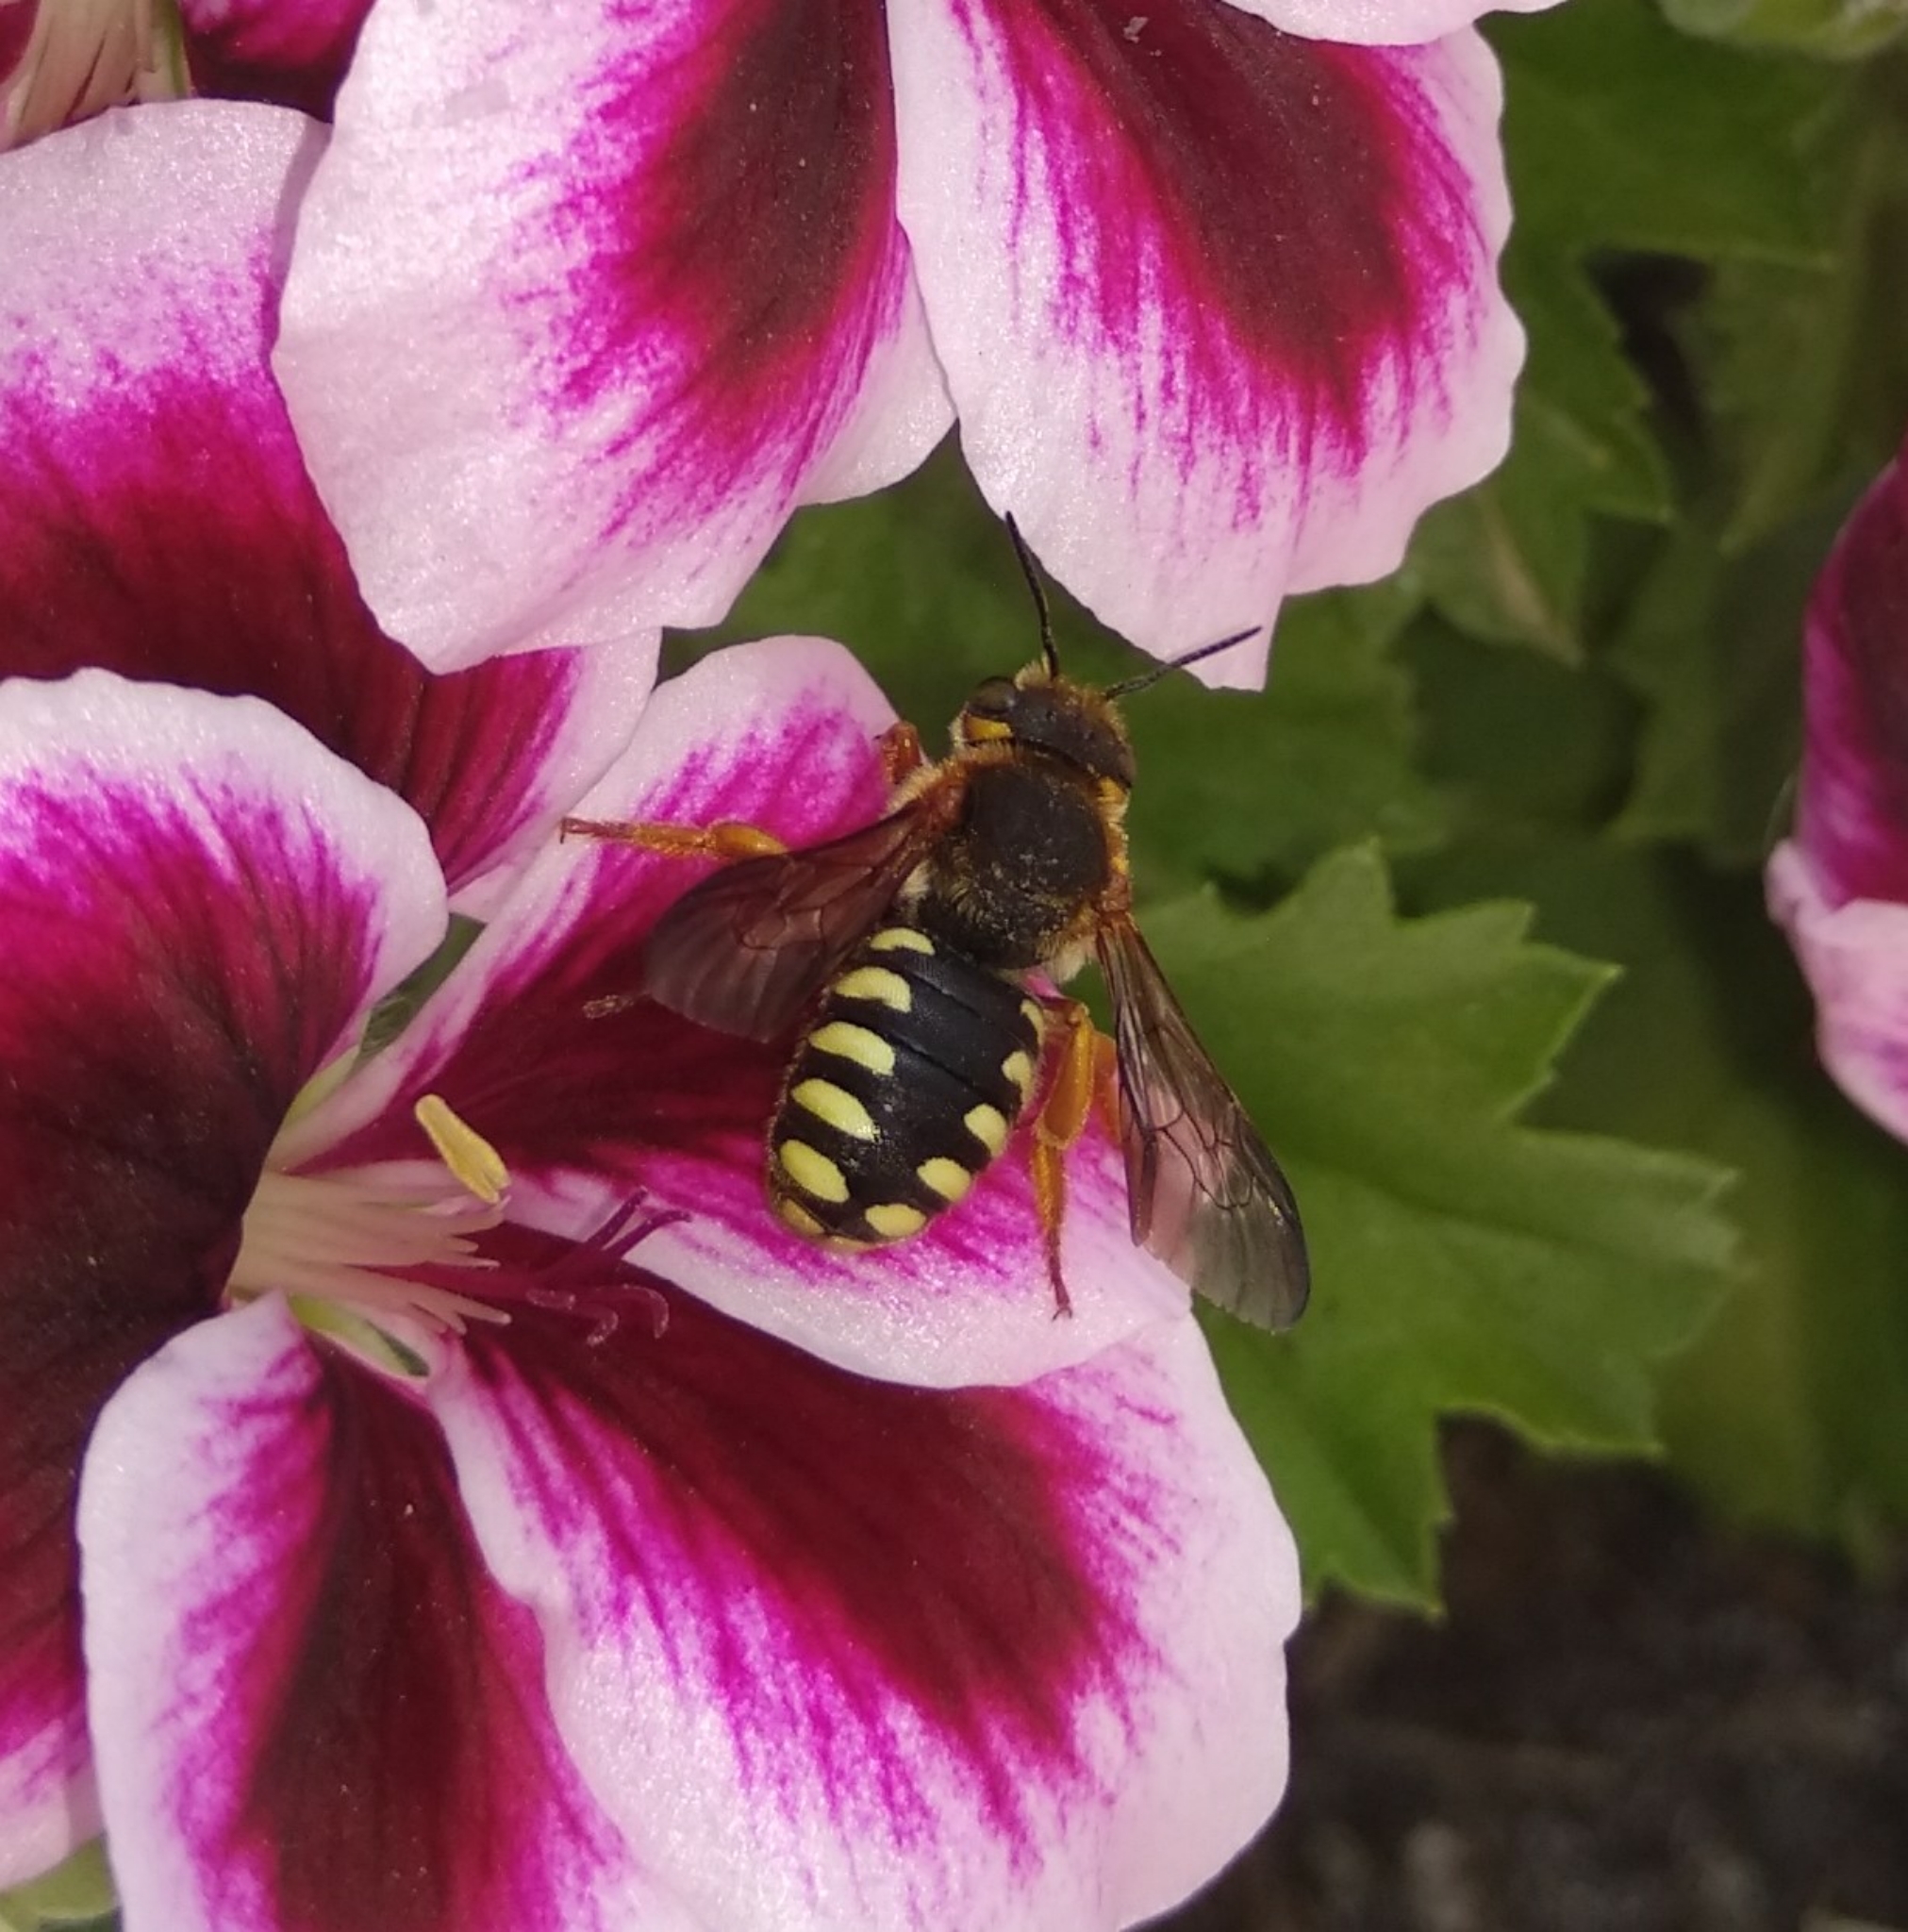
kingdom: Animalia
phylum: Arthropoda
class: Insecta
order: Hymenoptera
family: Megachilidae
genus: Rhodanthidium
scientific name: Rhodanthidium septemdentatum
